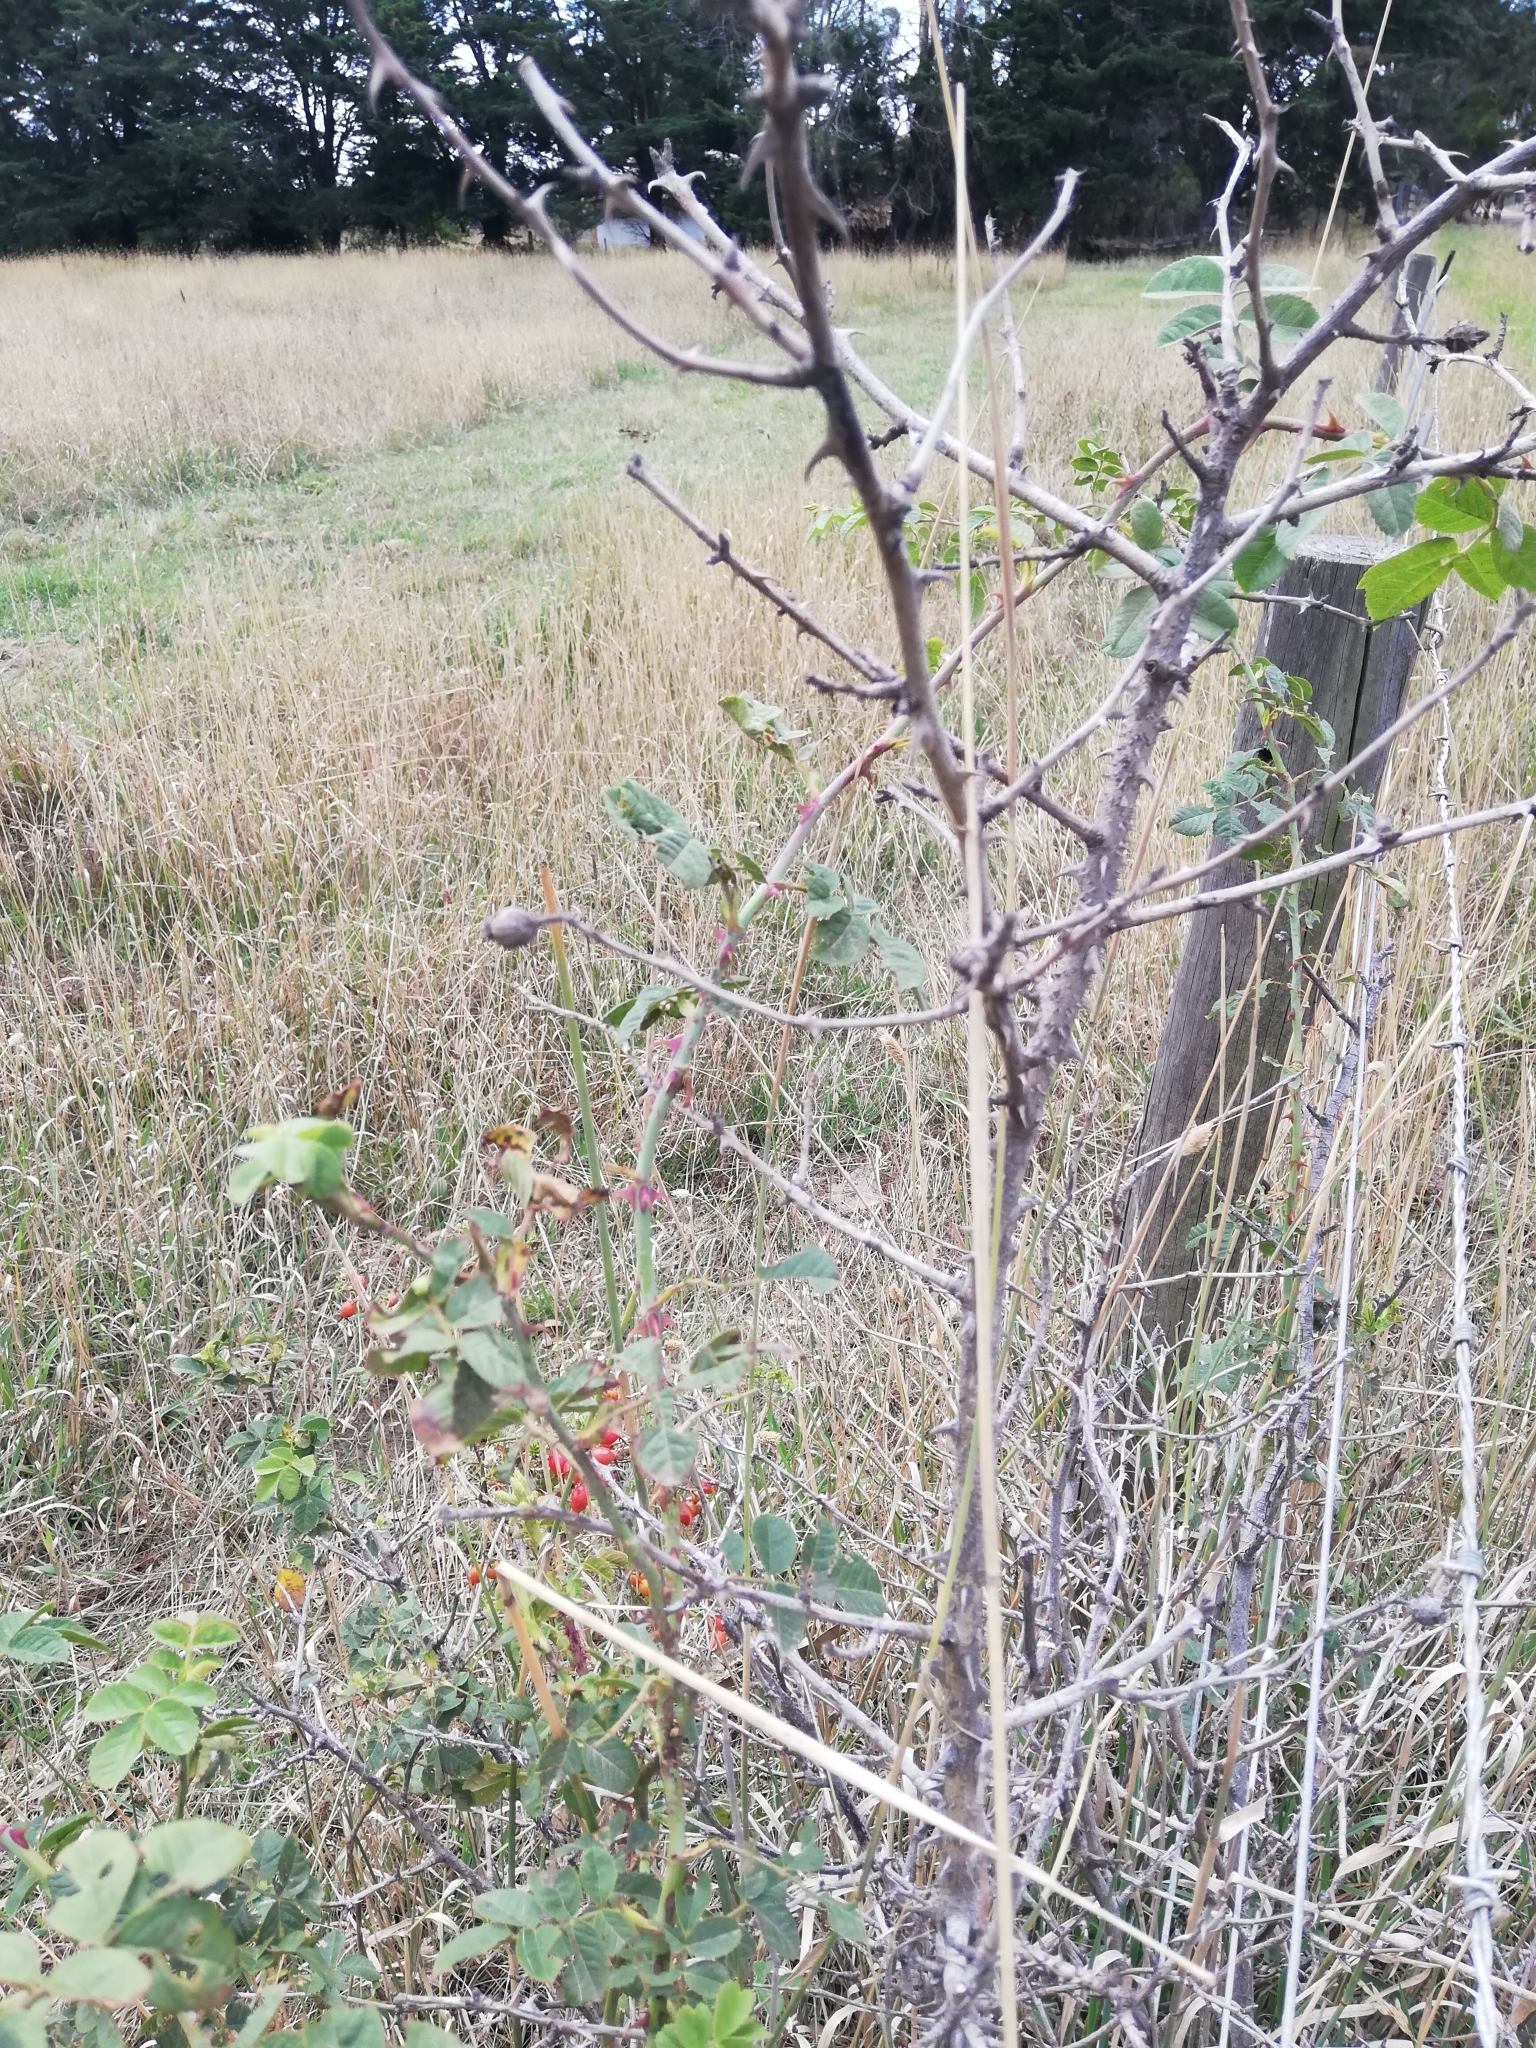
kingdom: Plantae
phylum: Tracheophyta
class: Magnoliopsida
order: Rosales
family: Rosaceae
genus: Rosa
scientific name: Rosa rubiginosa
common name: Sweet-briar
